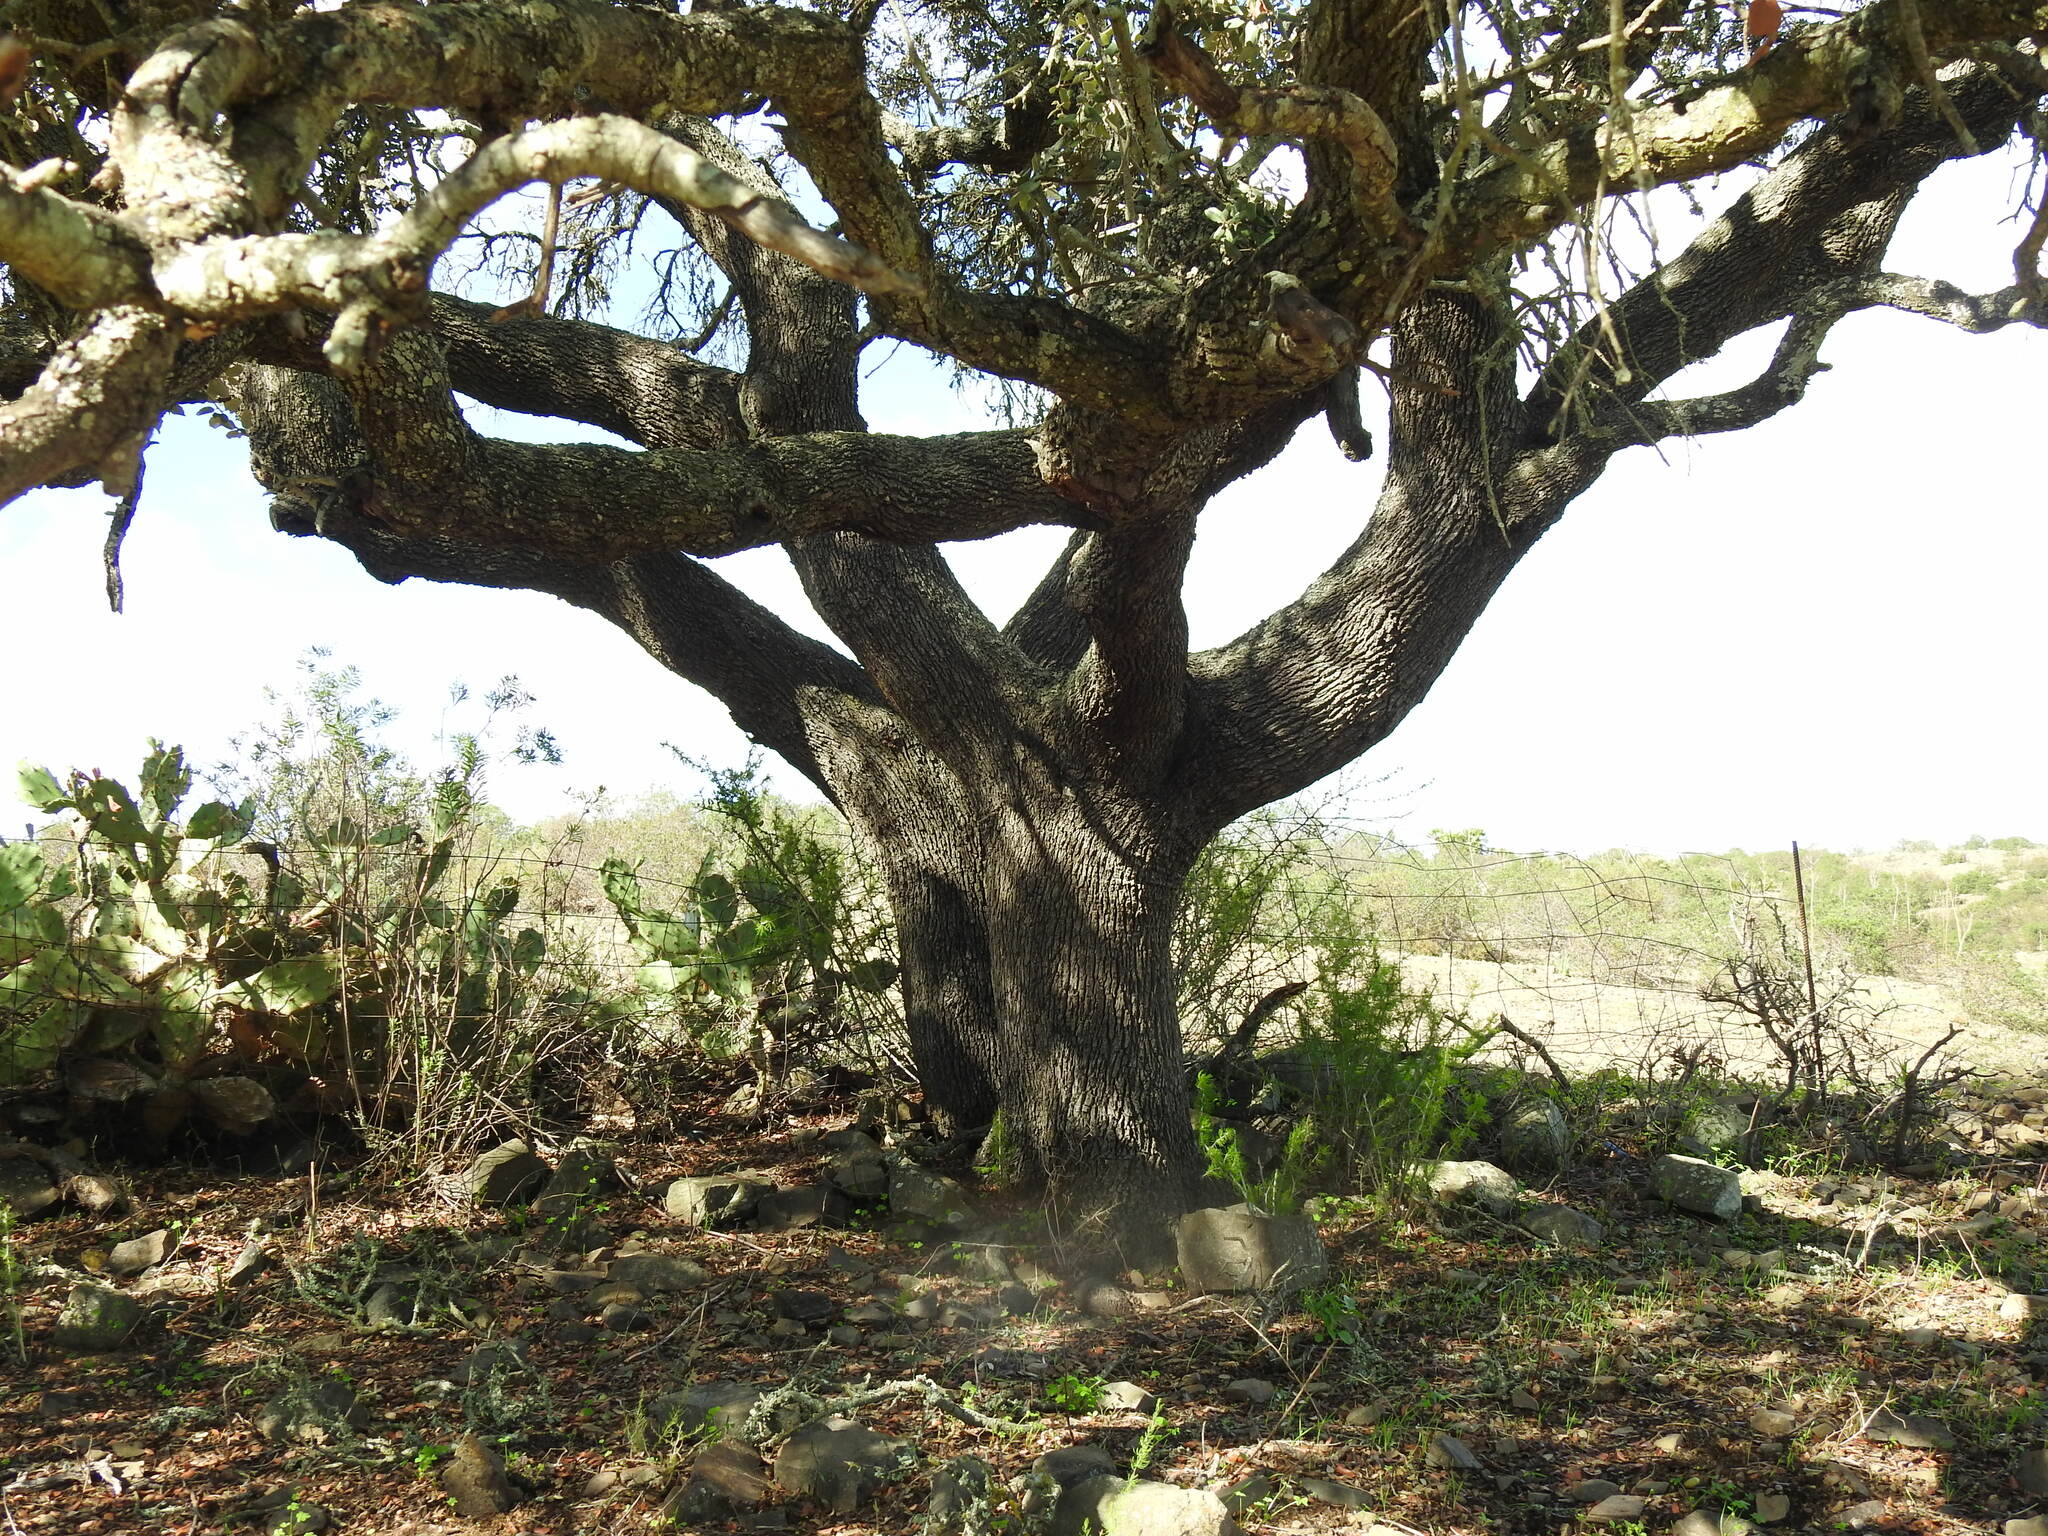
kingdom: Plantae
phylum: Tracheophyta
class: Magnoliopsida
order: Fagales
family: Fagaceae
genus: Quercus
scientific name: Quercus rotundifolia
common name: Holm oak
